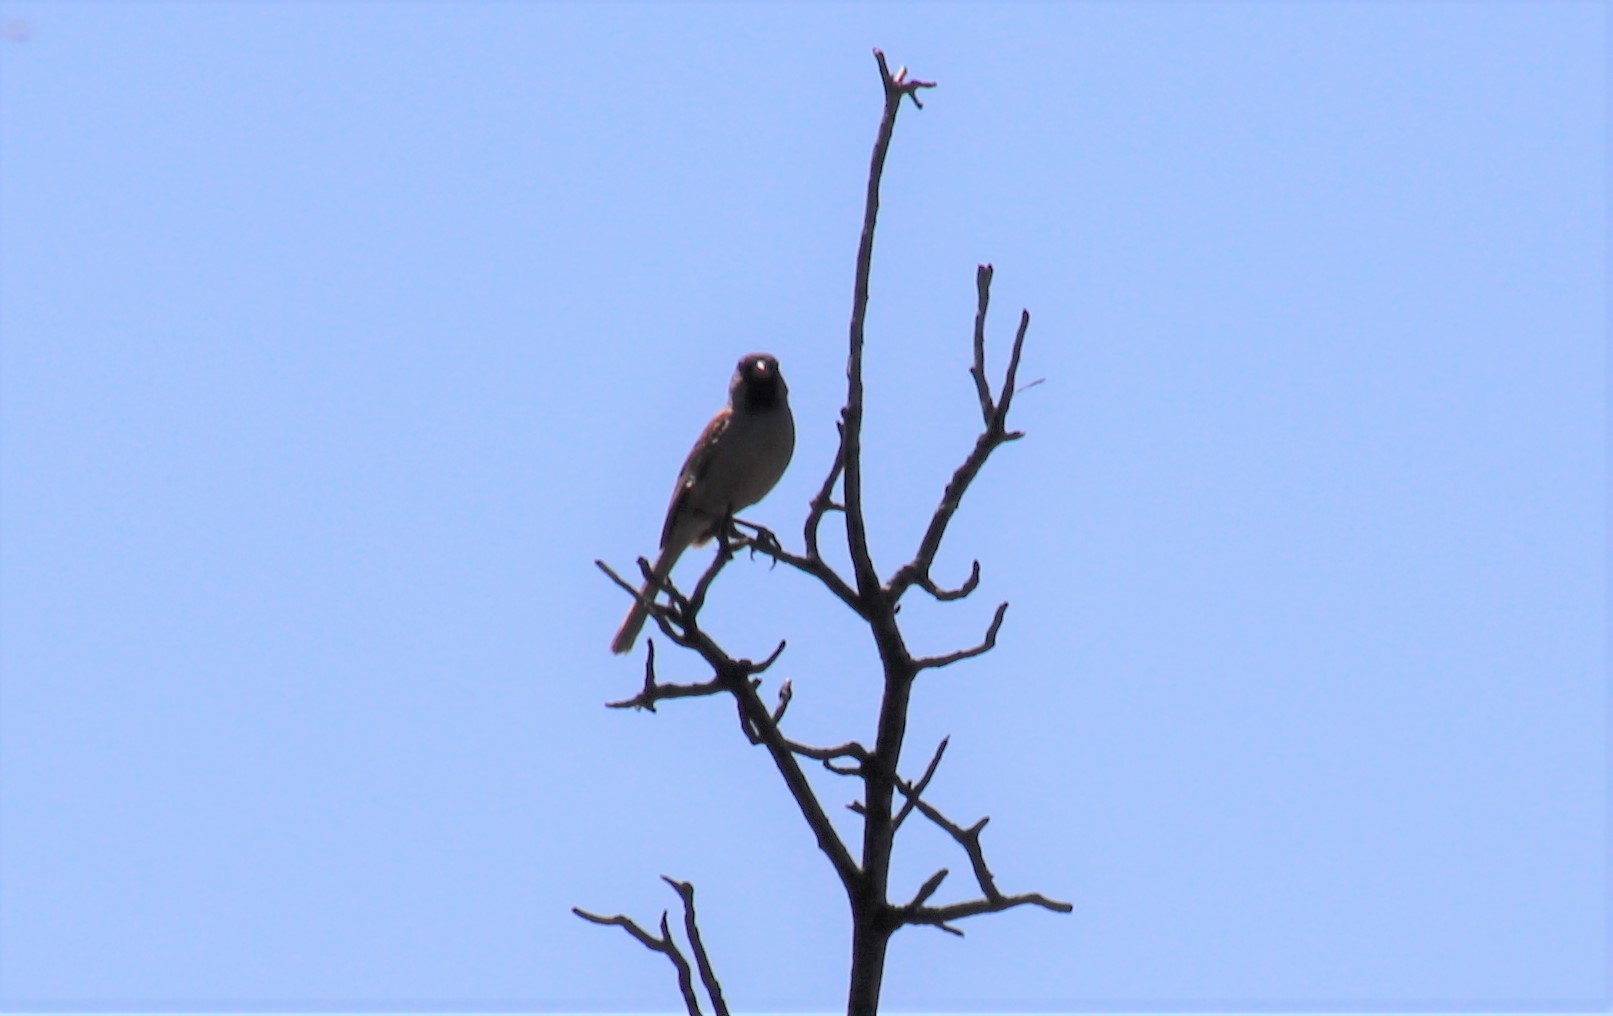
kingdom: Animalia
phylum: Chordata
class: Aves
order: Passeriformes
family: Passerellidae
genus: Spizella
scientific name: Spizella atrogularis
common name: Black-chinned sparrow
